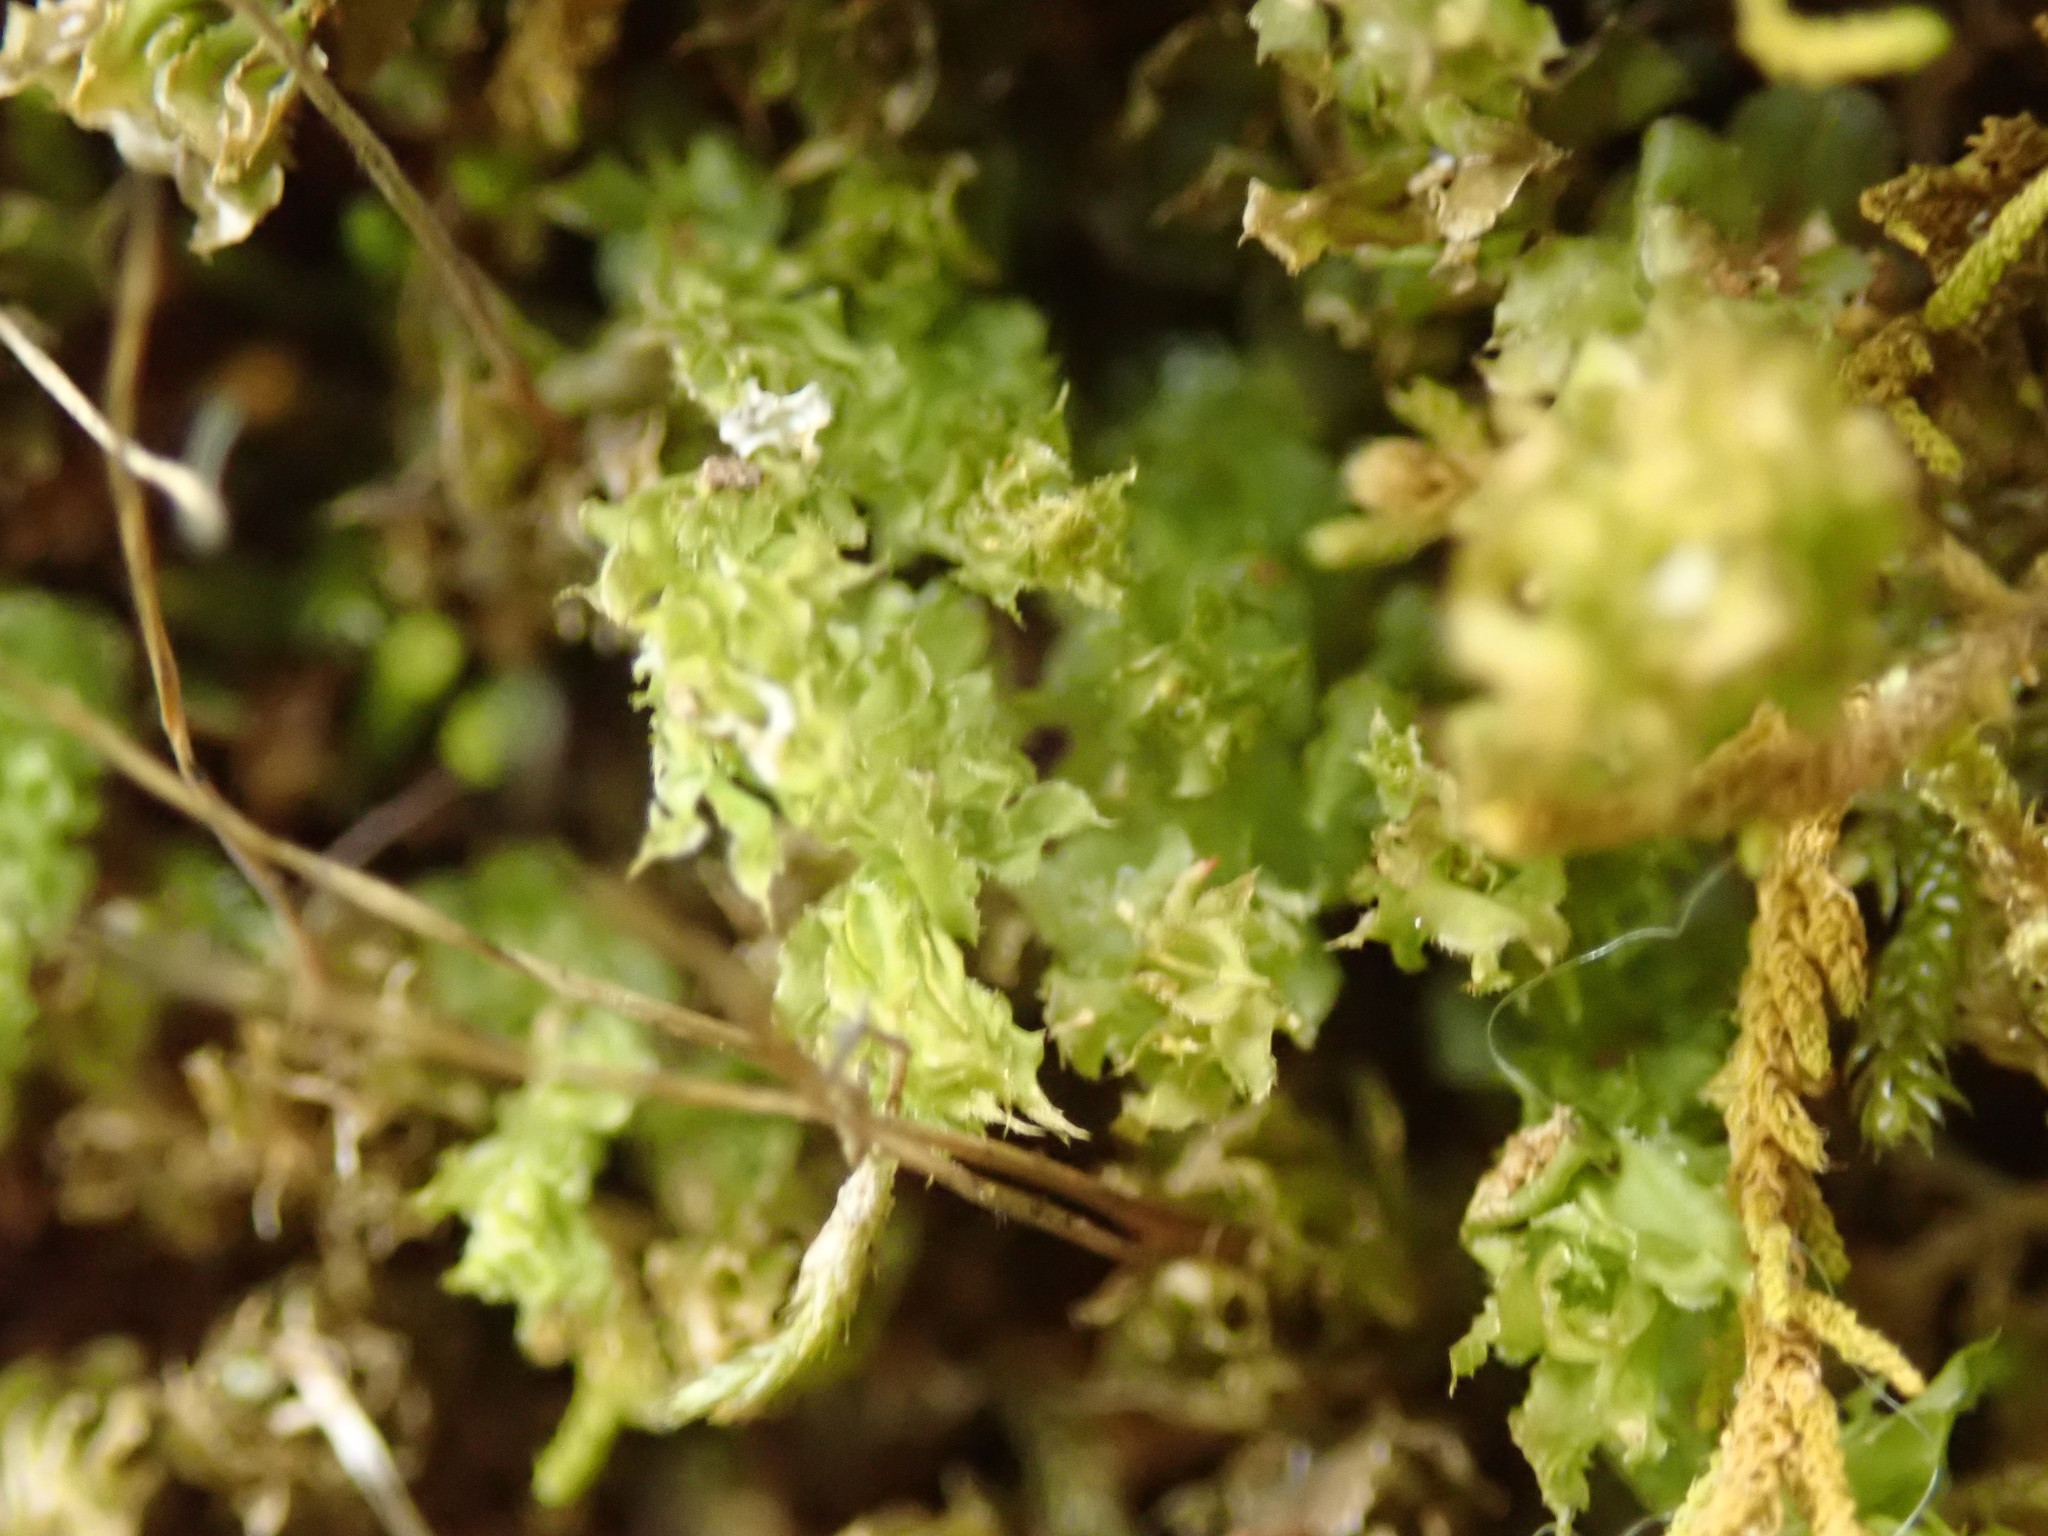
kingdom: Plantae
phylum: Bryophyta
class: Bryopsida
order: Bryales
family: Mniaceae
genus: Plagiomnium
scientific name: Plagiomnium venustum
